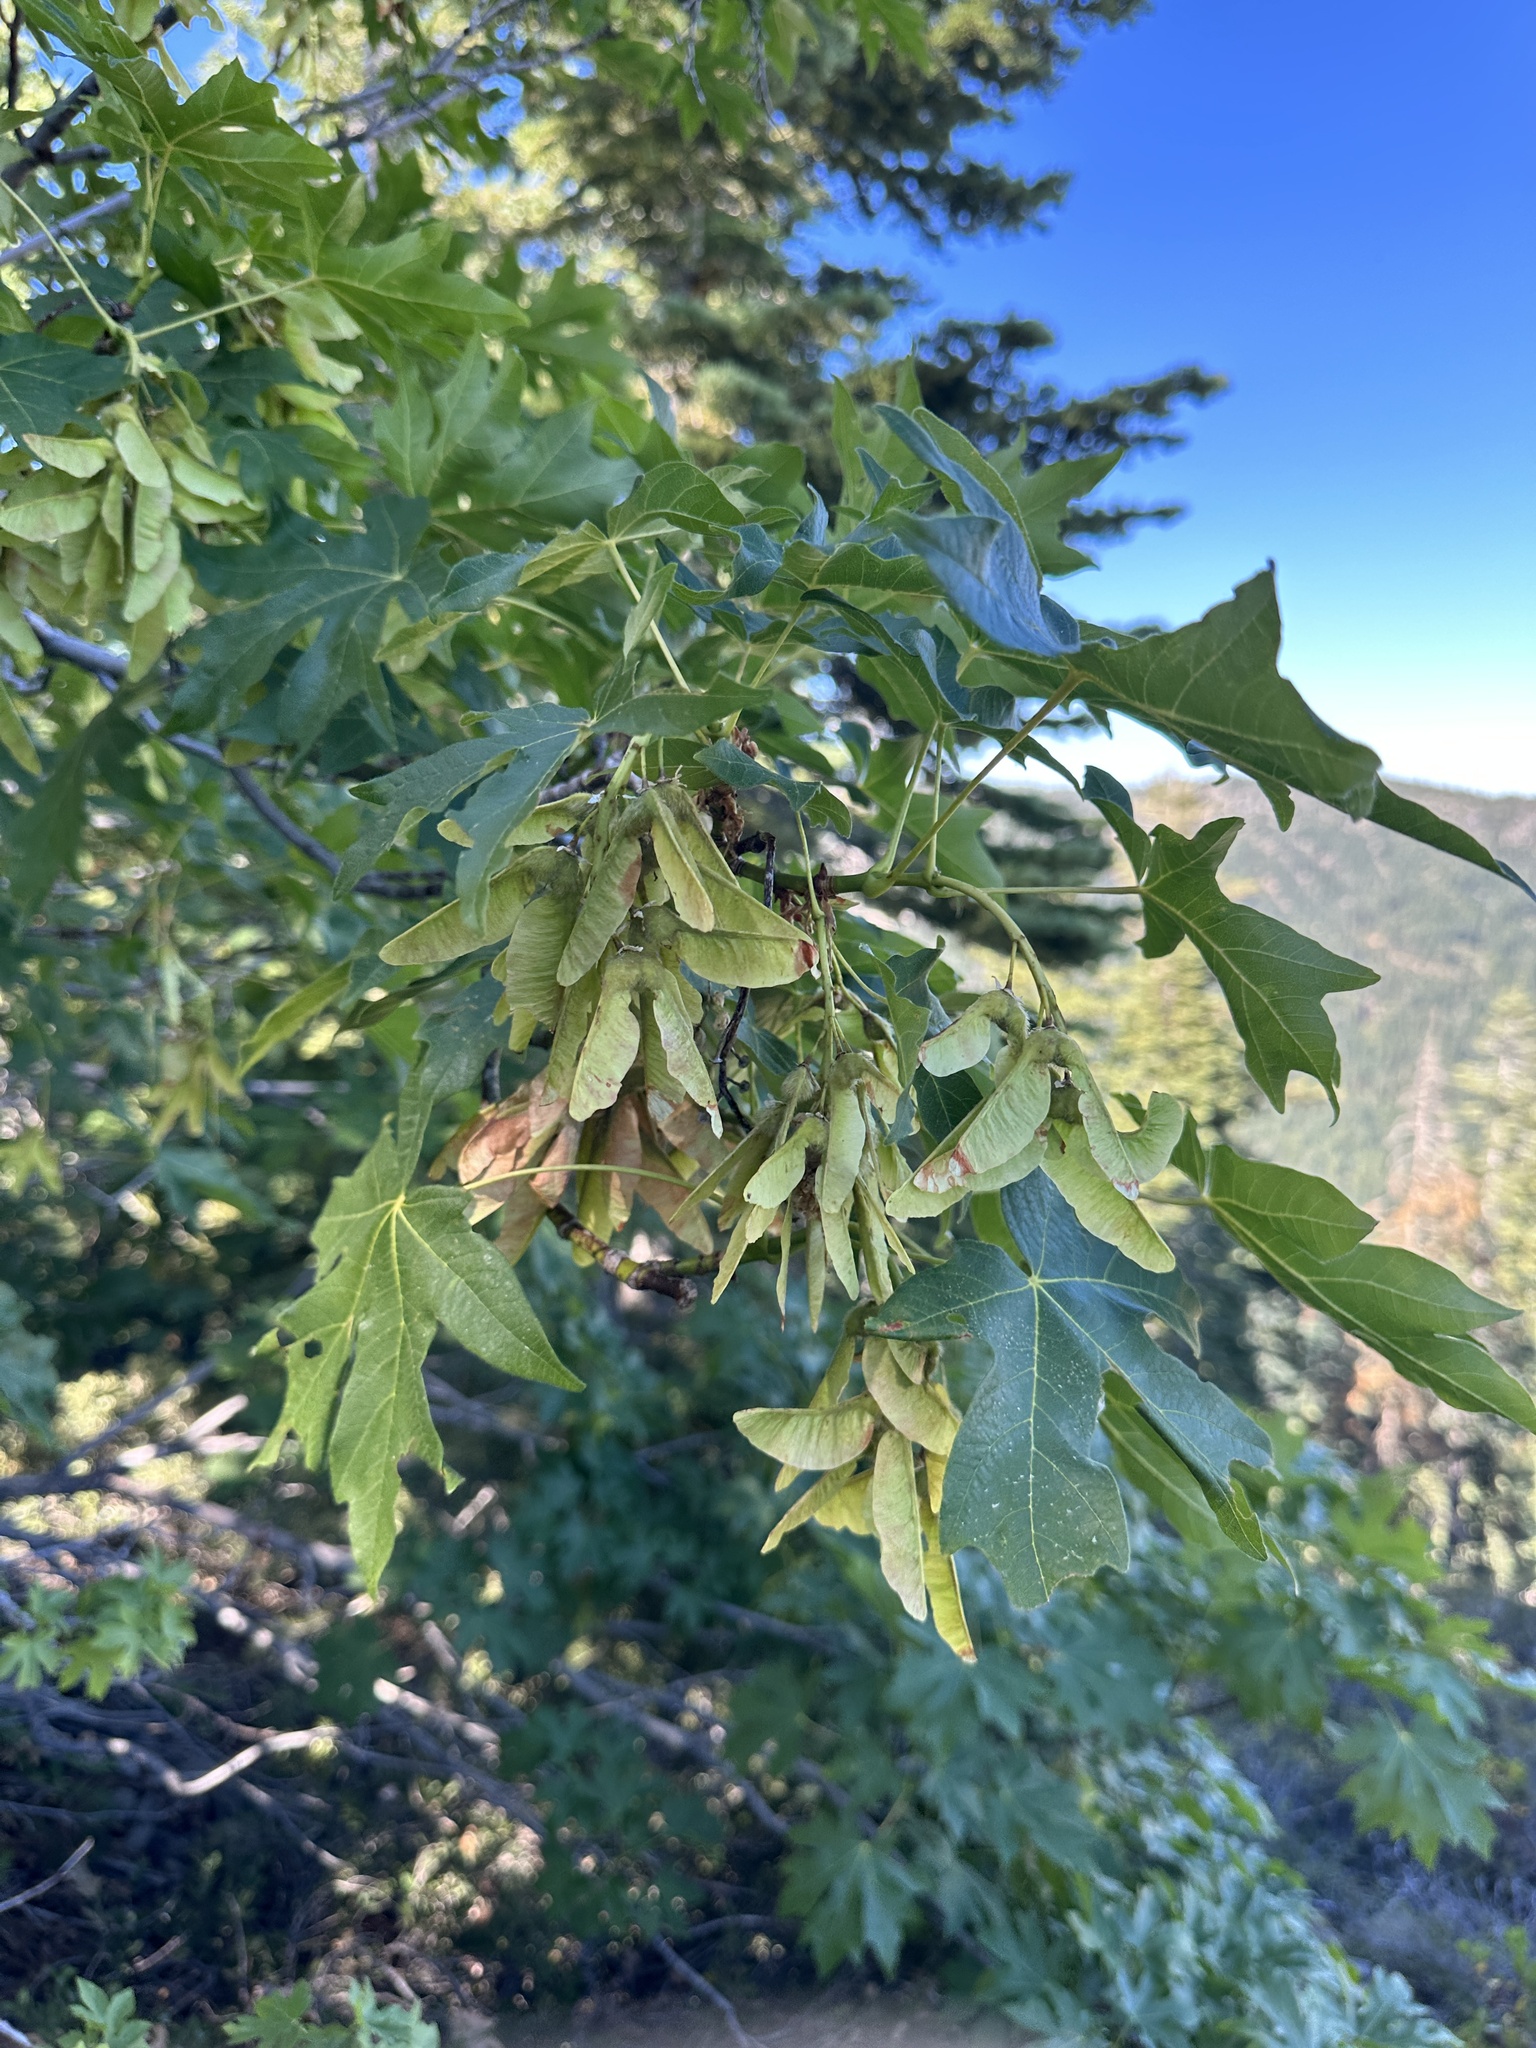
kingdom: Plantae
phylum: Tracheophyta
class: Magnoliopsida
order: Sapindales
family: Sapindaceae
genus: Acer
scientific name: Acer macrophyllum
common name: Oregon maple
